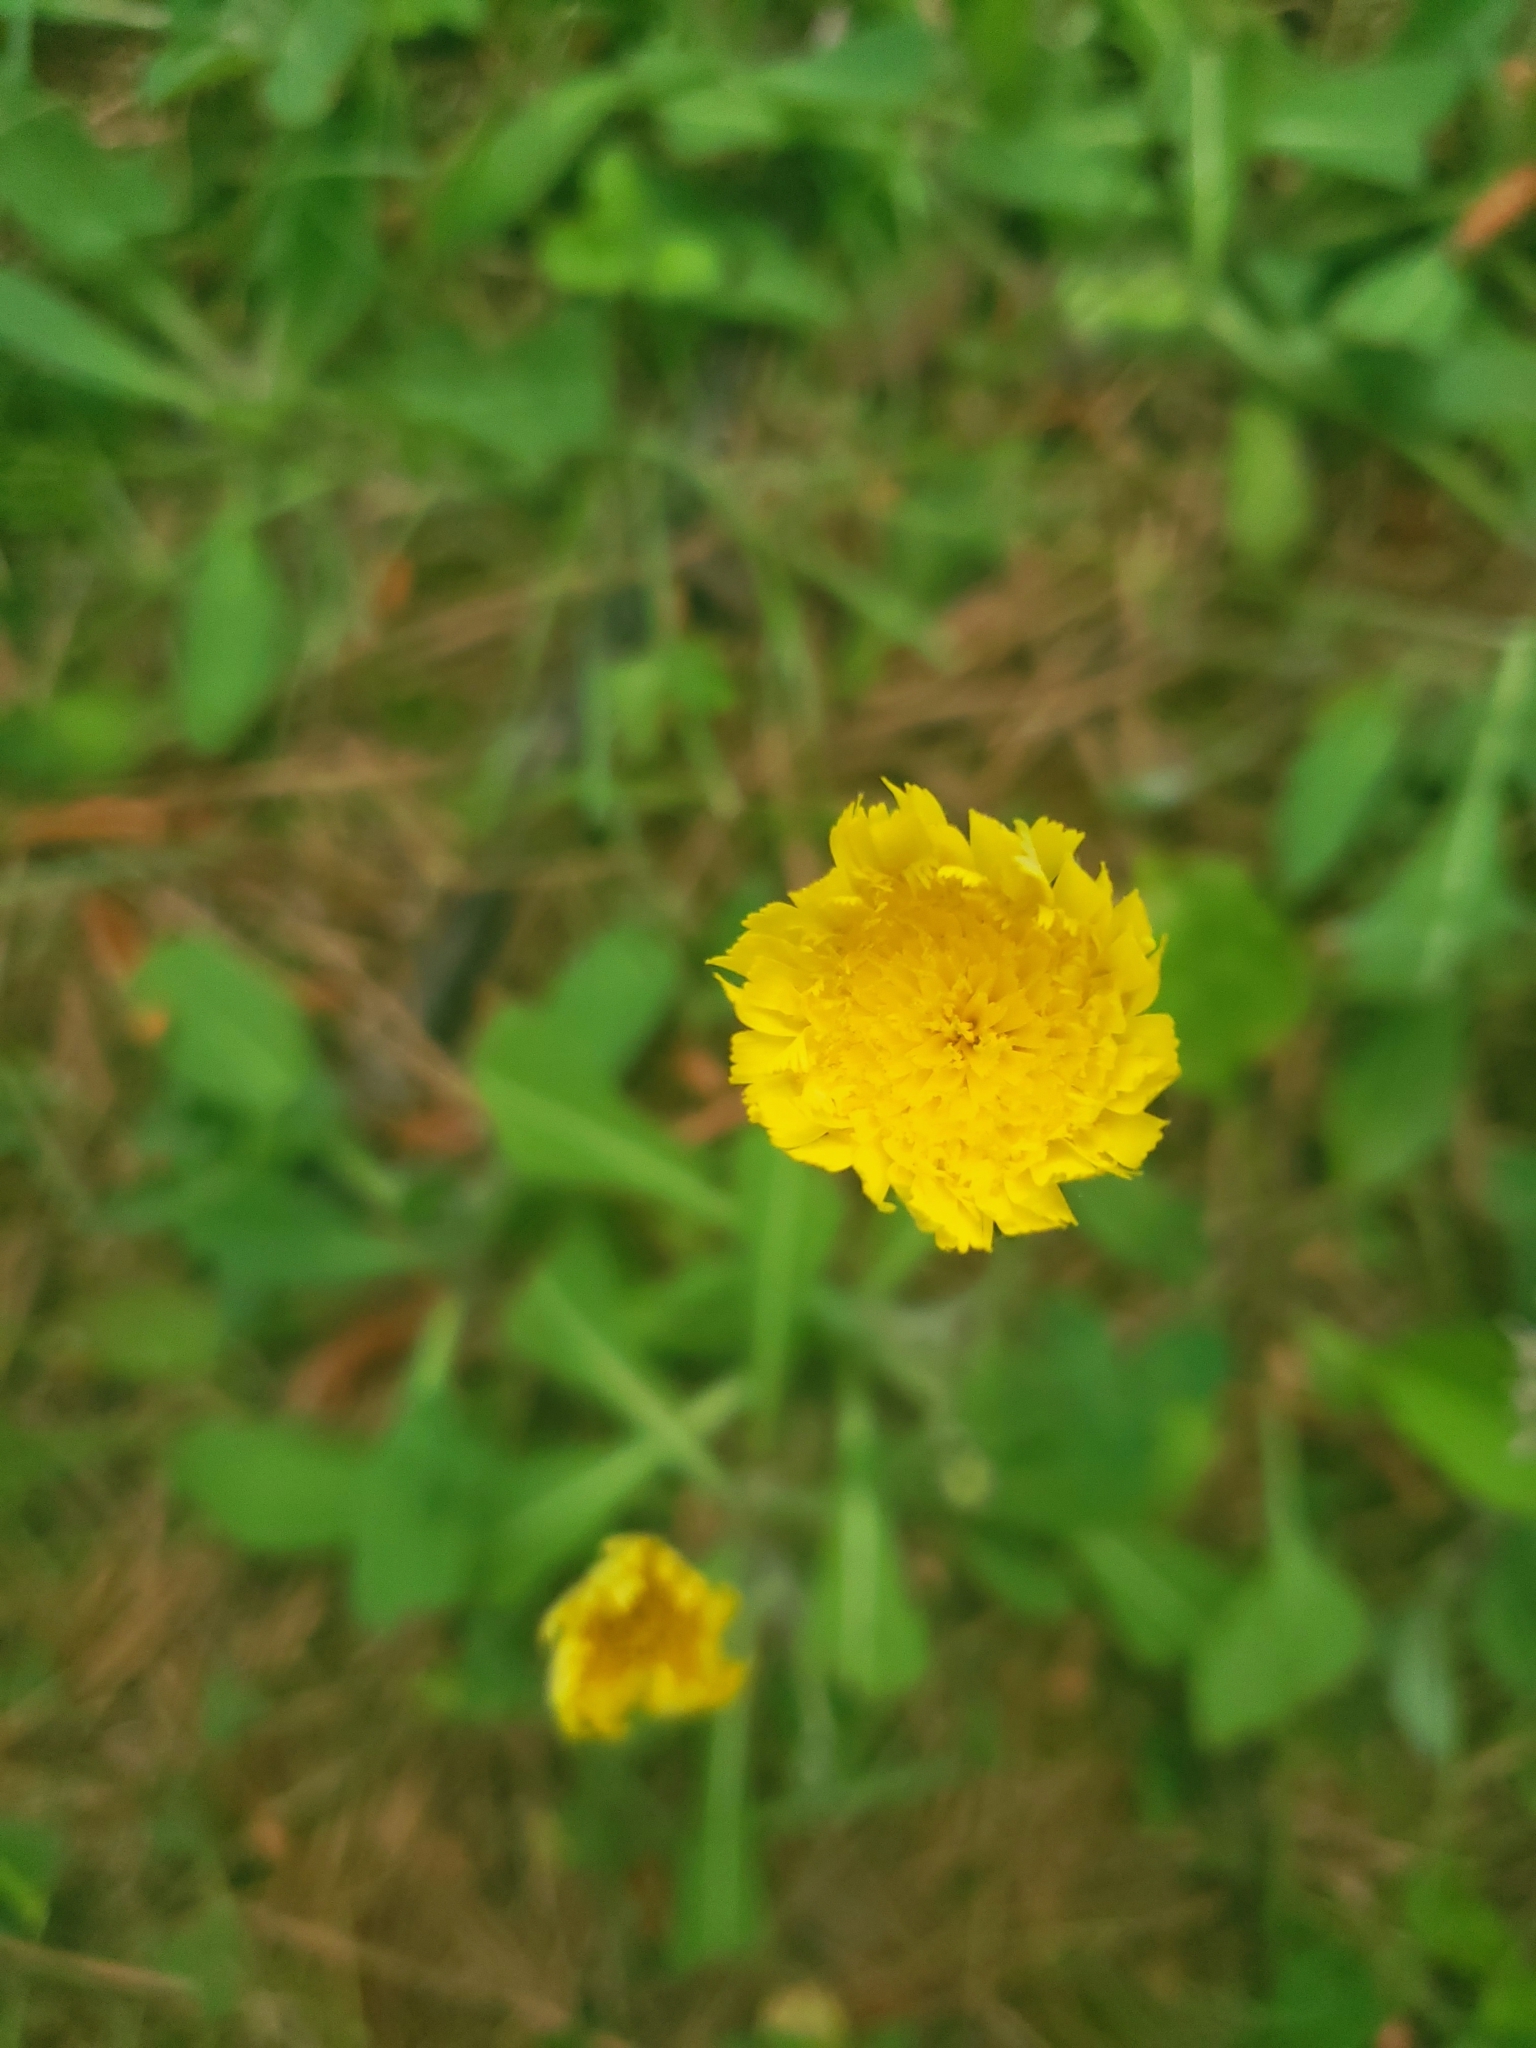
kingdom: Plantae
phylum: Tracheophyta
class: Magnoliopsida
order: Asterales
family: Asteraceae
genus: Pilosella
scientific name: Pilosella officinarum
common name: Mouse-ear hawkweed
